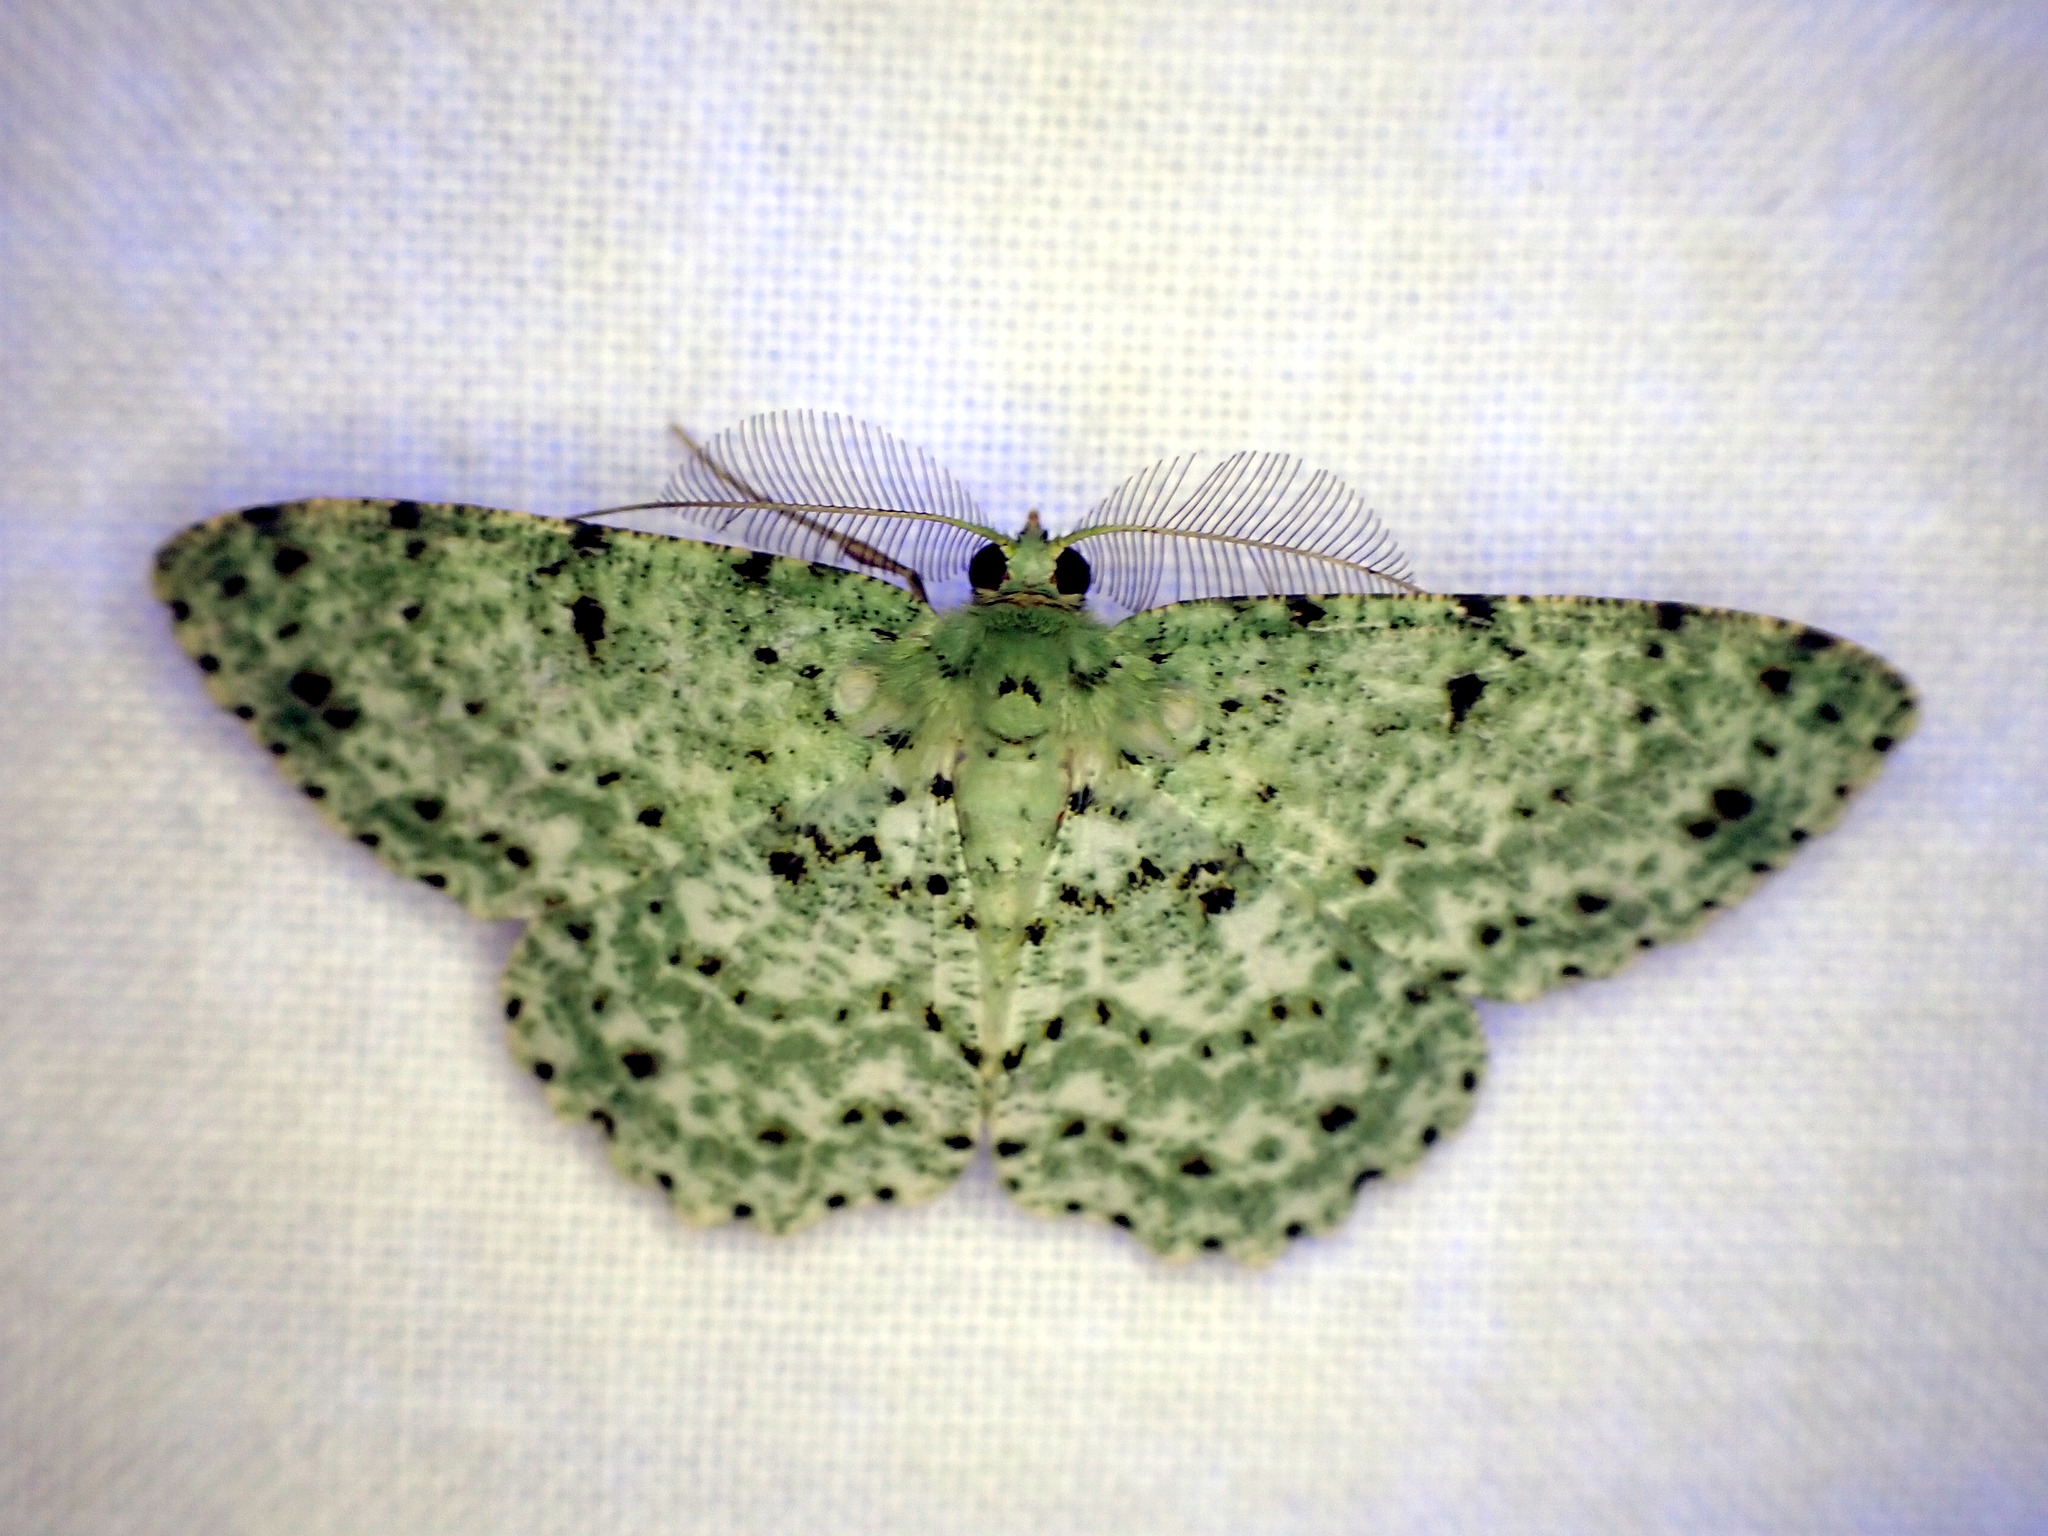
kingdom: Animalia
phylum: Arthropoda
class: Insecta
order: Lepidoptera
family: Geometridae
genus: Catoria
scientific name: Catoria delectaria
